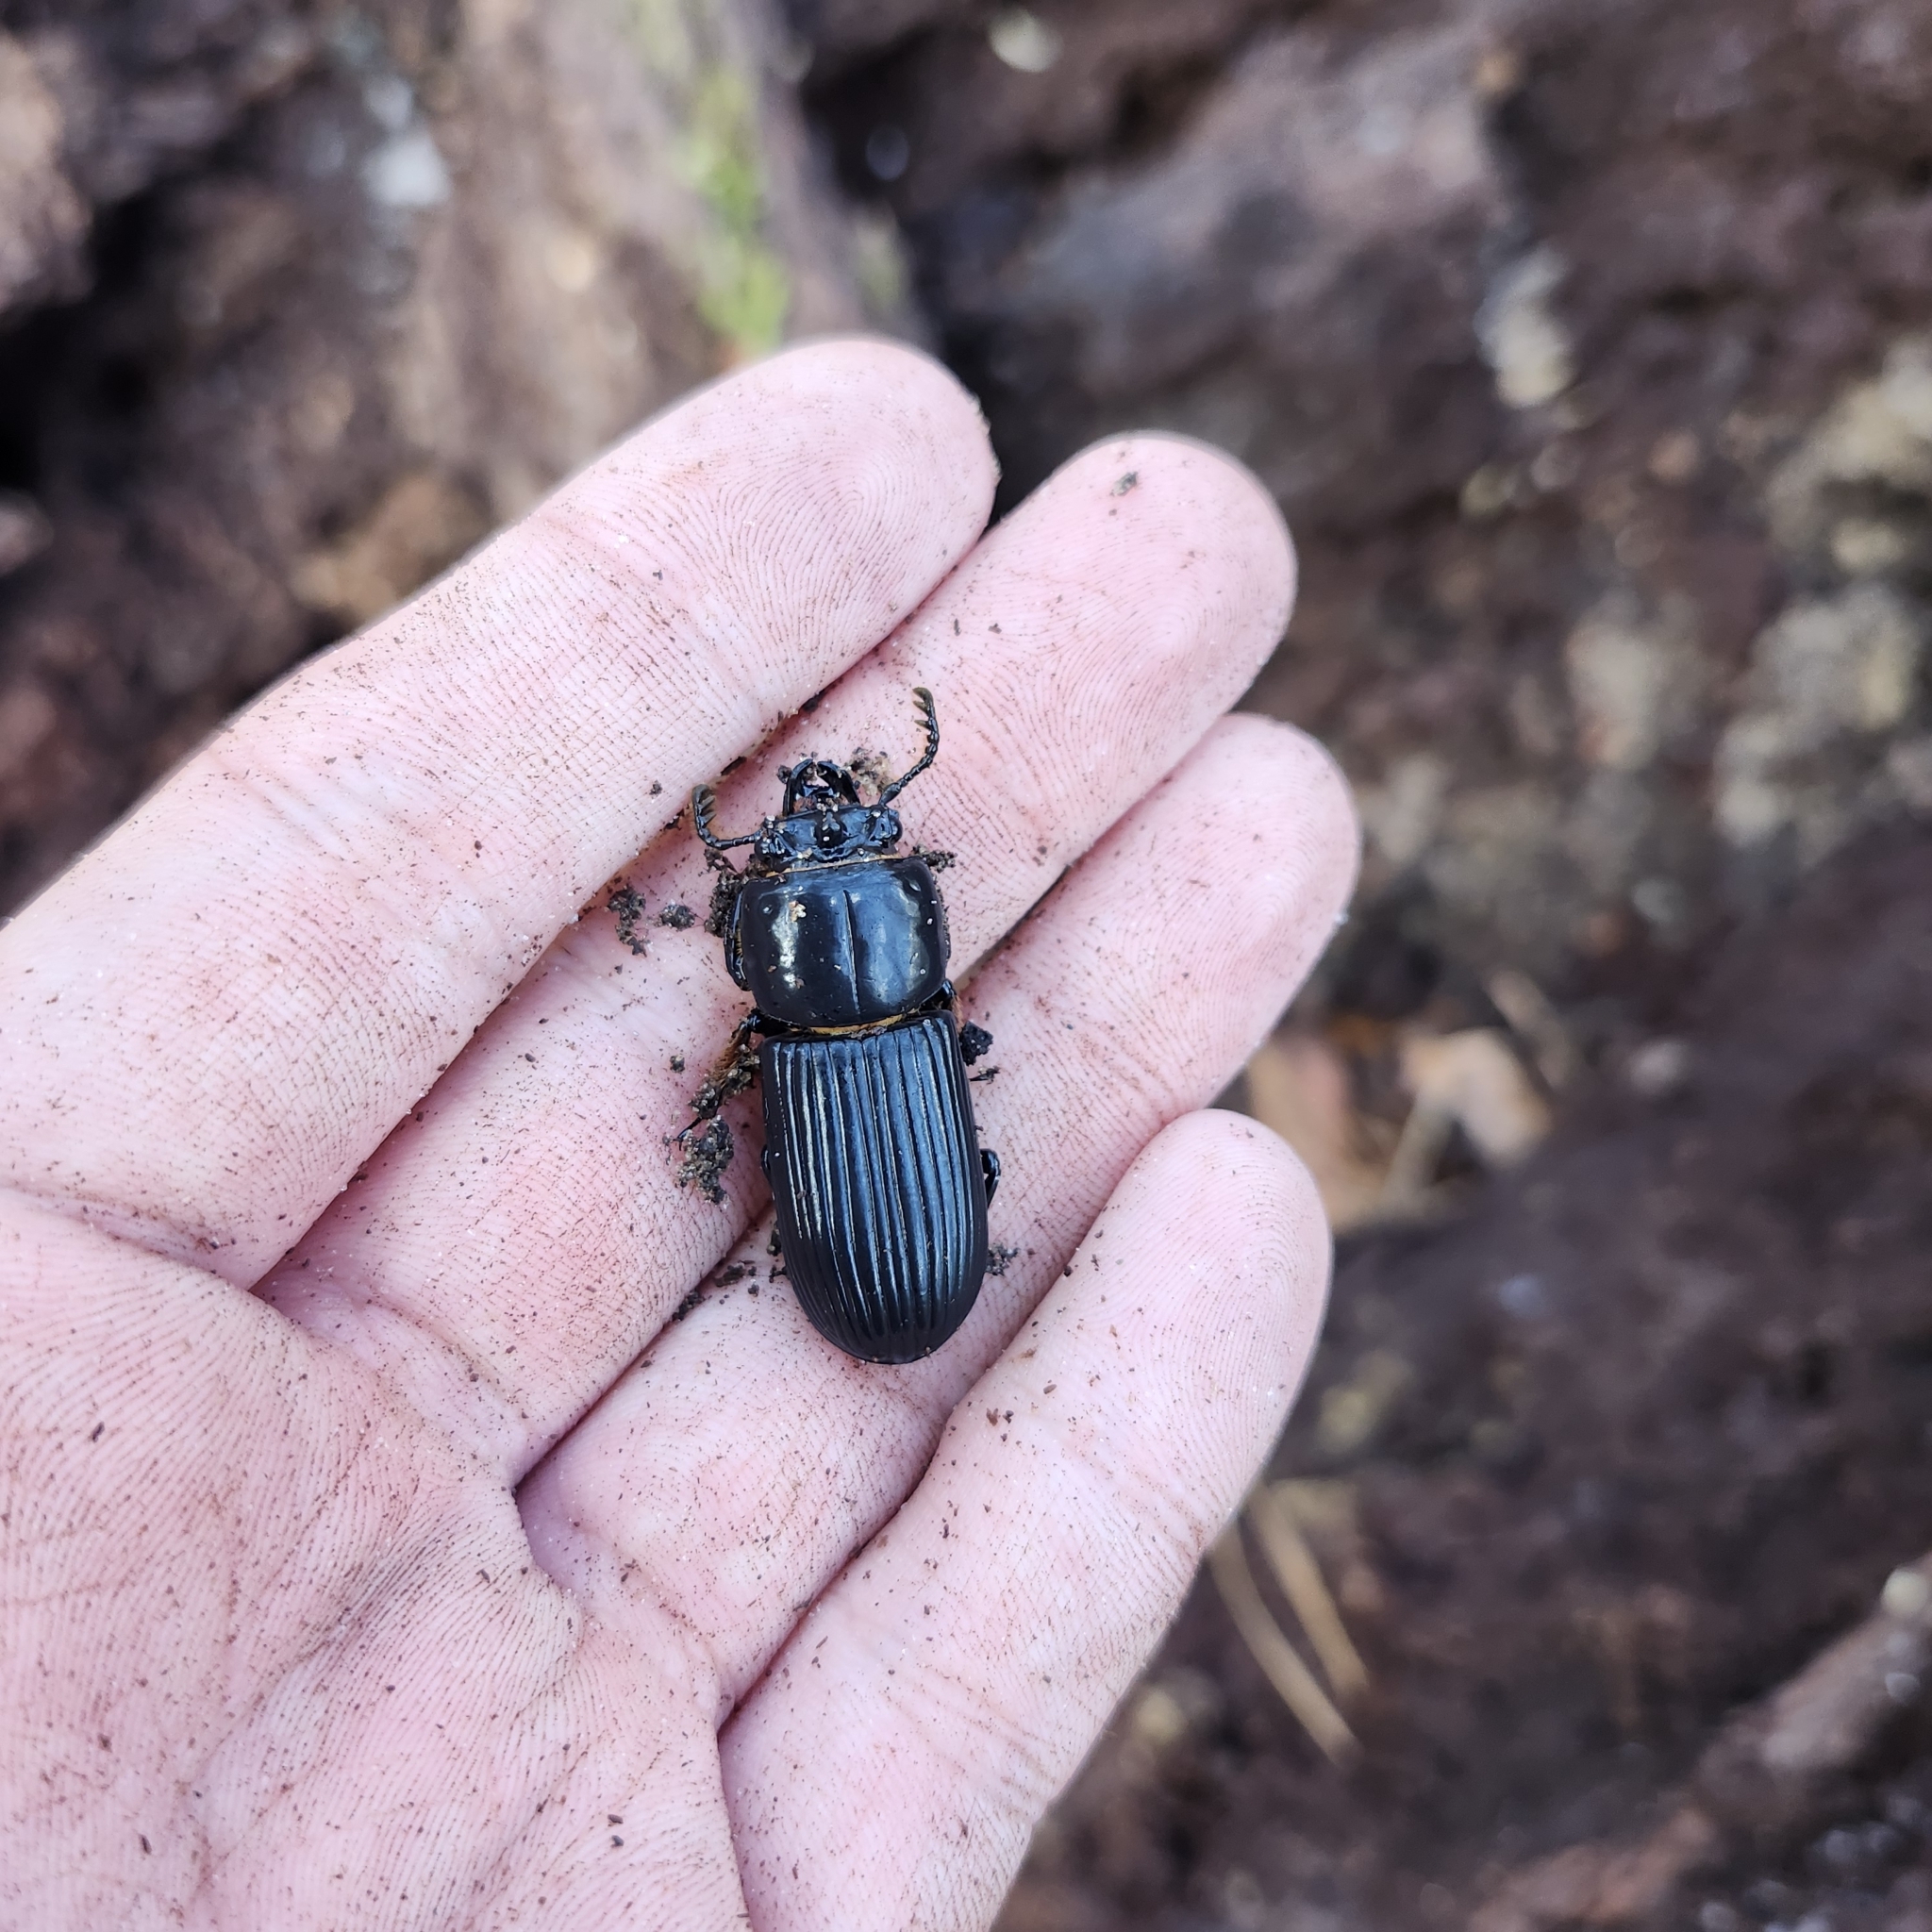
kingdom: Animalia
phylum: Arthropoda
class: Insecta
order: Coleoptera
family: Passalidae
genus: Odontotaenius
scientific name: Odontotaenius disjunctus
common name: Patent leather beetle
